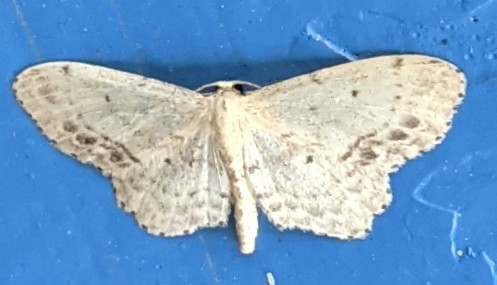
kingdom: Animalia
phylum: Arthropoda
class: Insecta
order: Lepidoptera
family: Geometridae
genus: Idaea
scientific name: Idaea dimidiata
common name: Single-dotted wave
